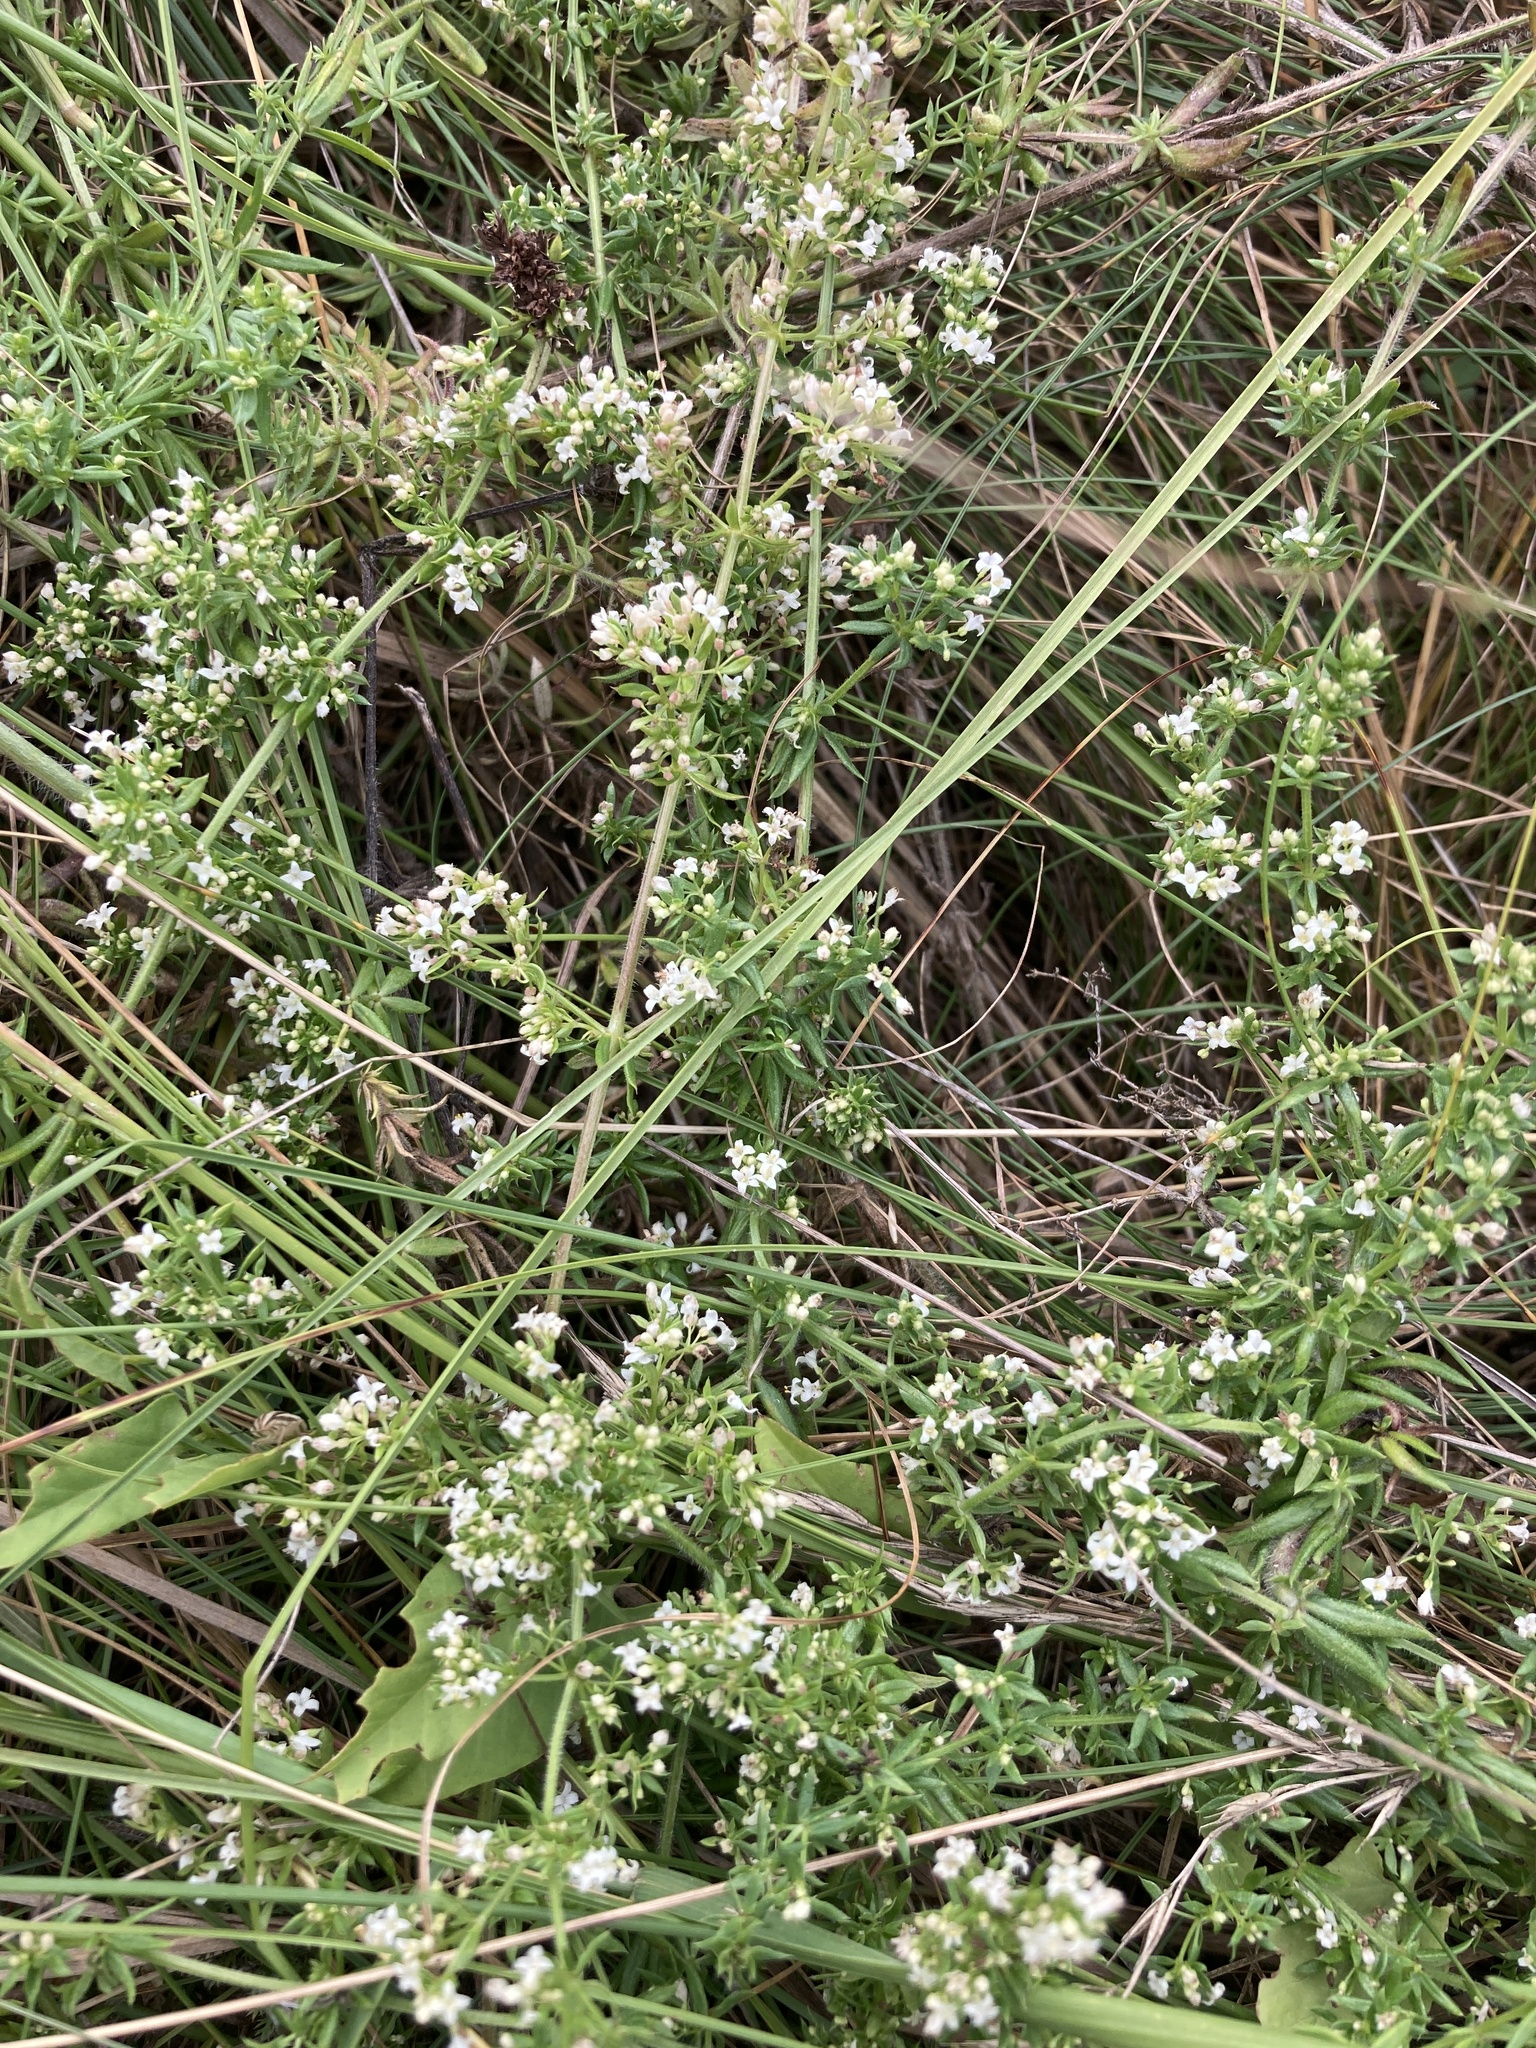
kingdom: Plantae
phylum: Tracheophyta
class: Magnoliopsida
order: Gentianales
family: Rubiaceae
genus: Galium
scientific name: Galium humifusum
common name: Spreading bedstraw
